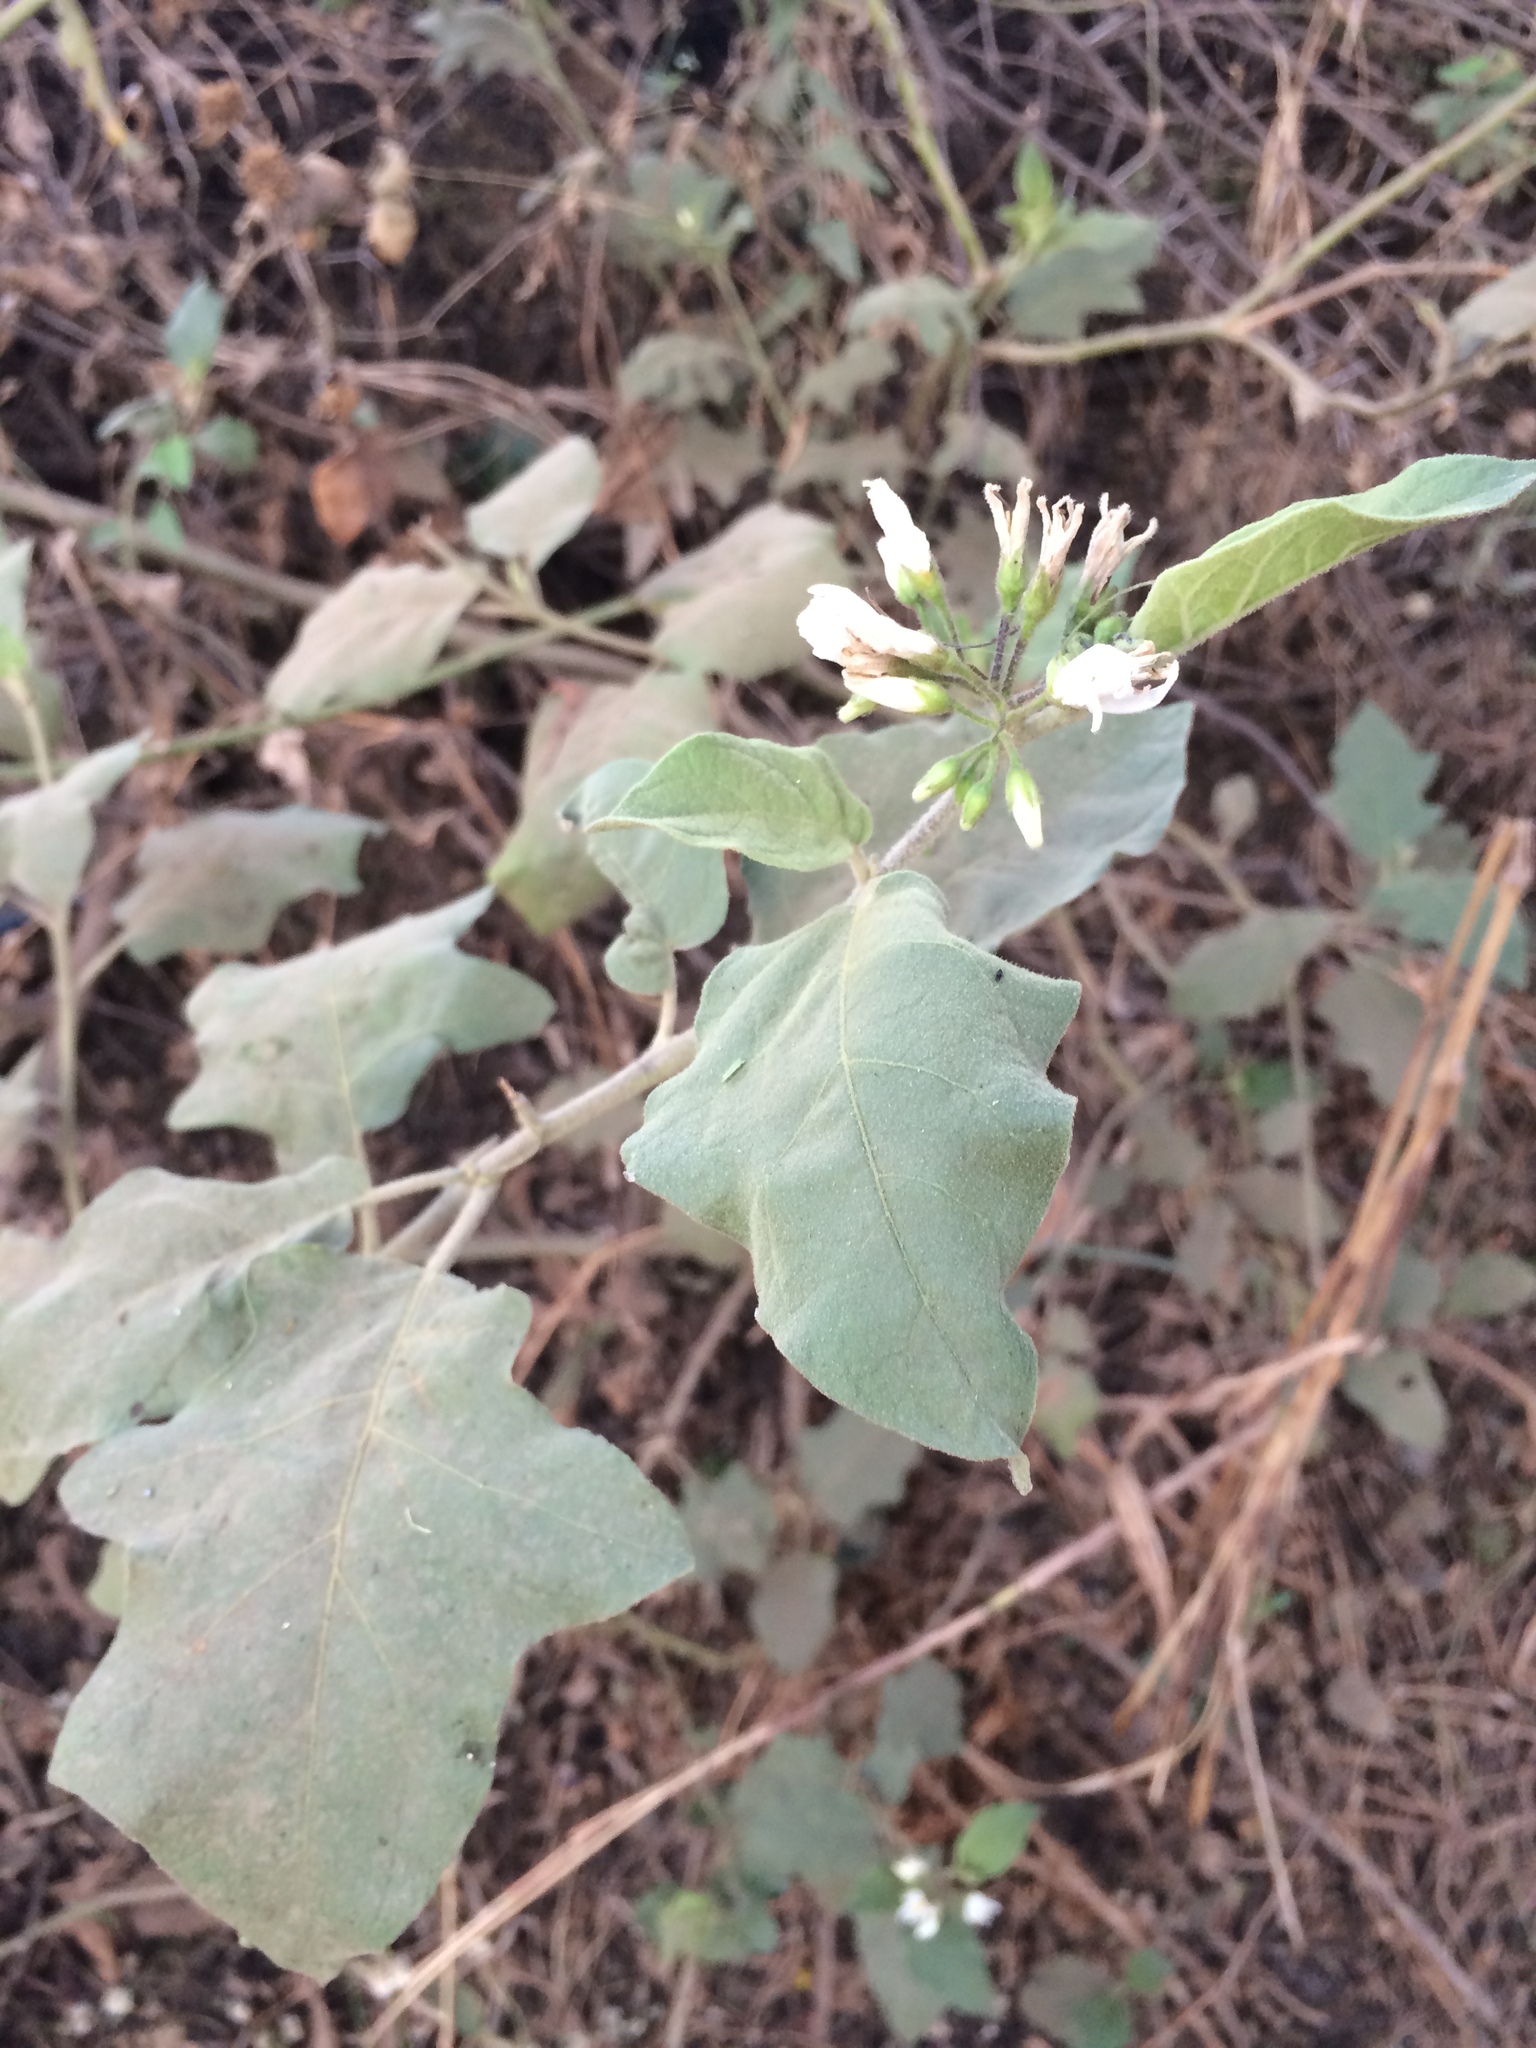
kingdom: Plantae
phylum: Tracheophyta
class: Magnoliopsida
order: Solanales
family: Solanaceae
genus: Solanum
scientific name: Solanum torvum
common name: Turkey berry
